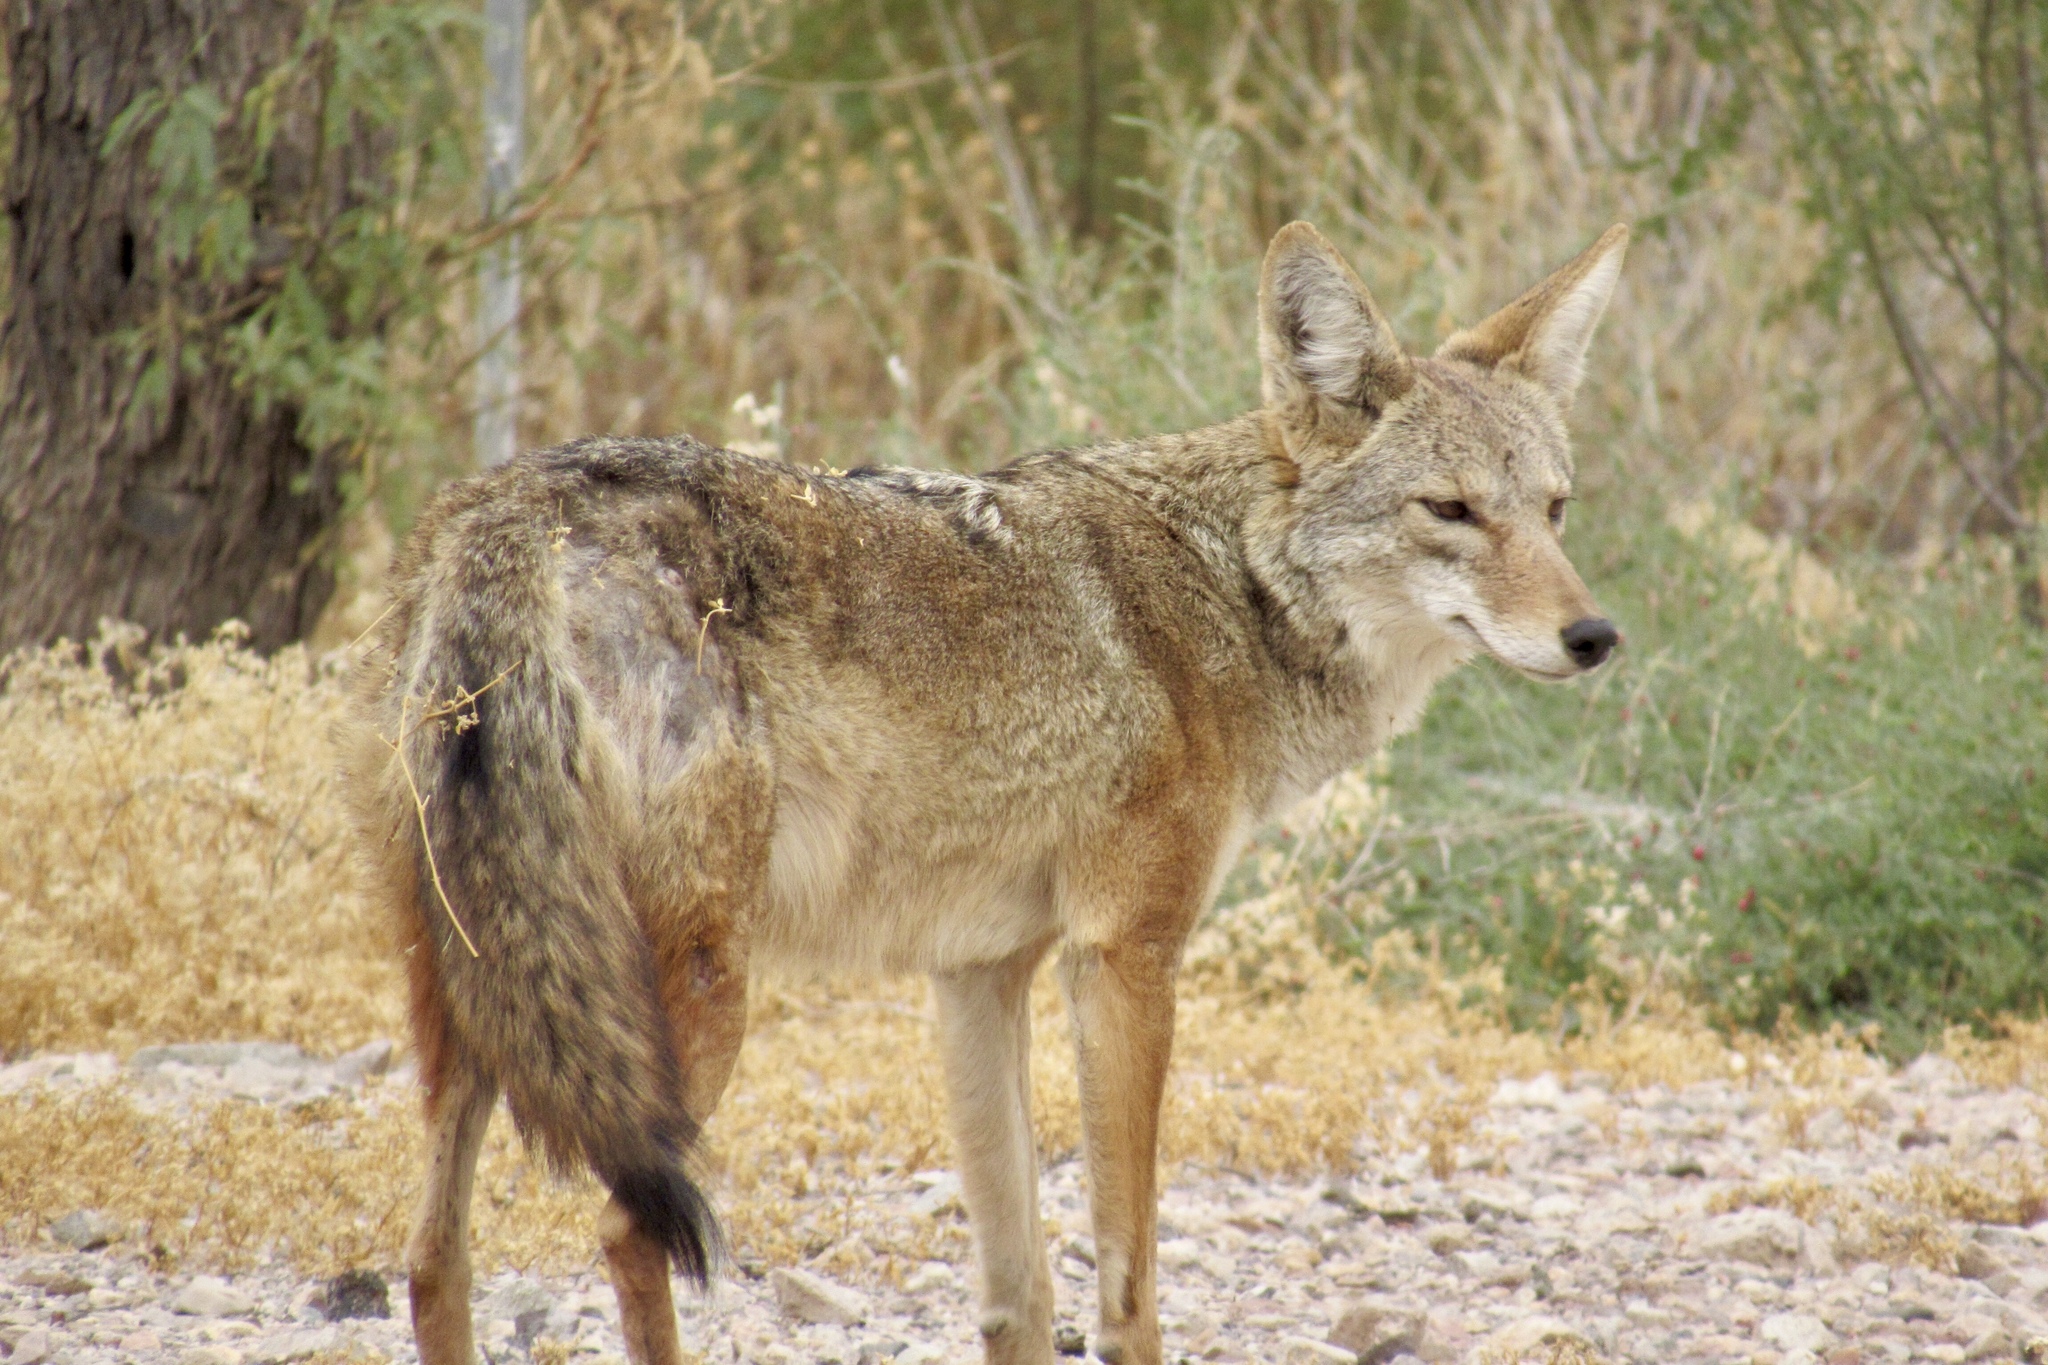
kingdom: Animalia
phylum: Chordata
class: Mammalia
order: Carnivora
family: Canidae
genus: Canis
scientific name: Canis latrans
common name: Coyote
